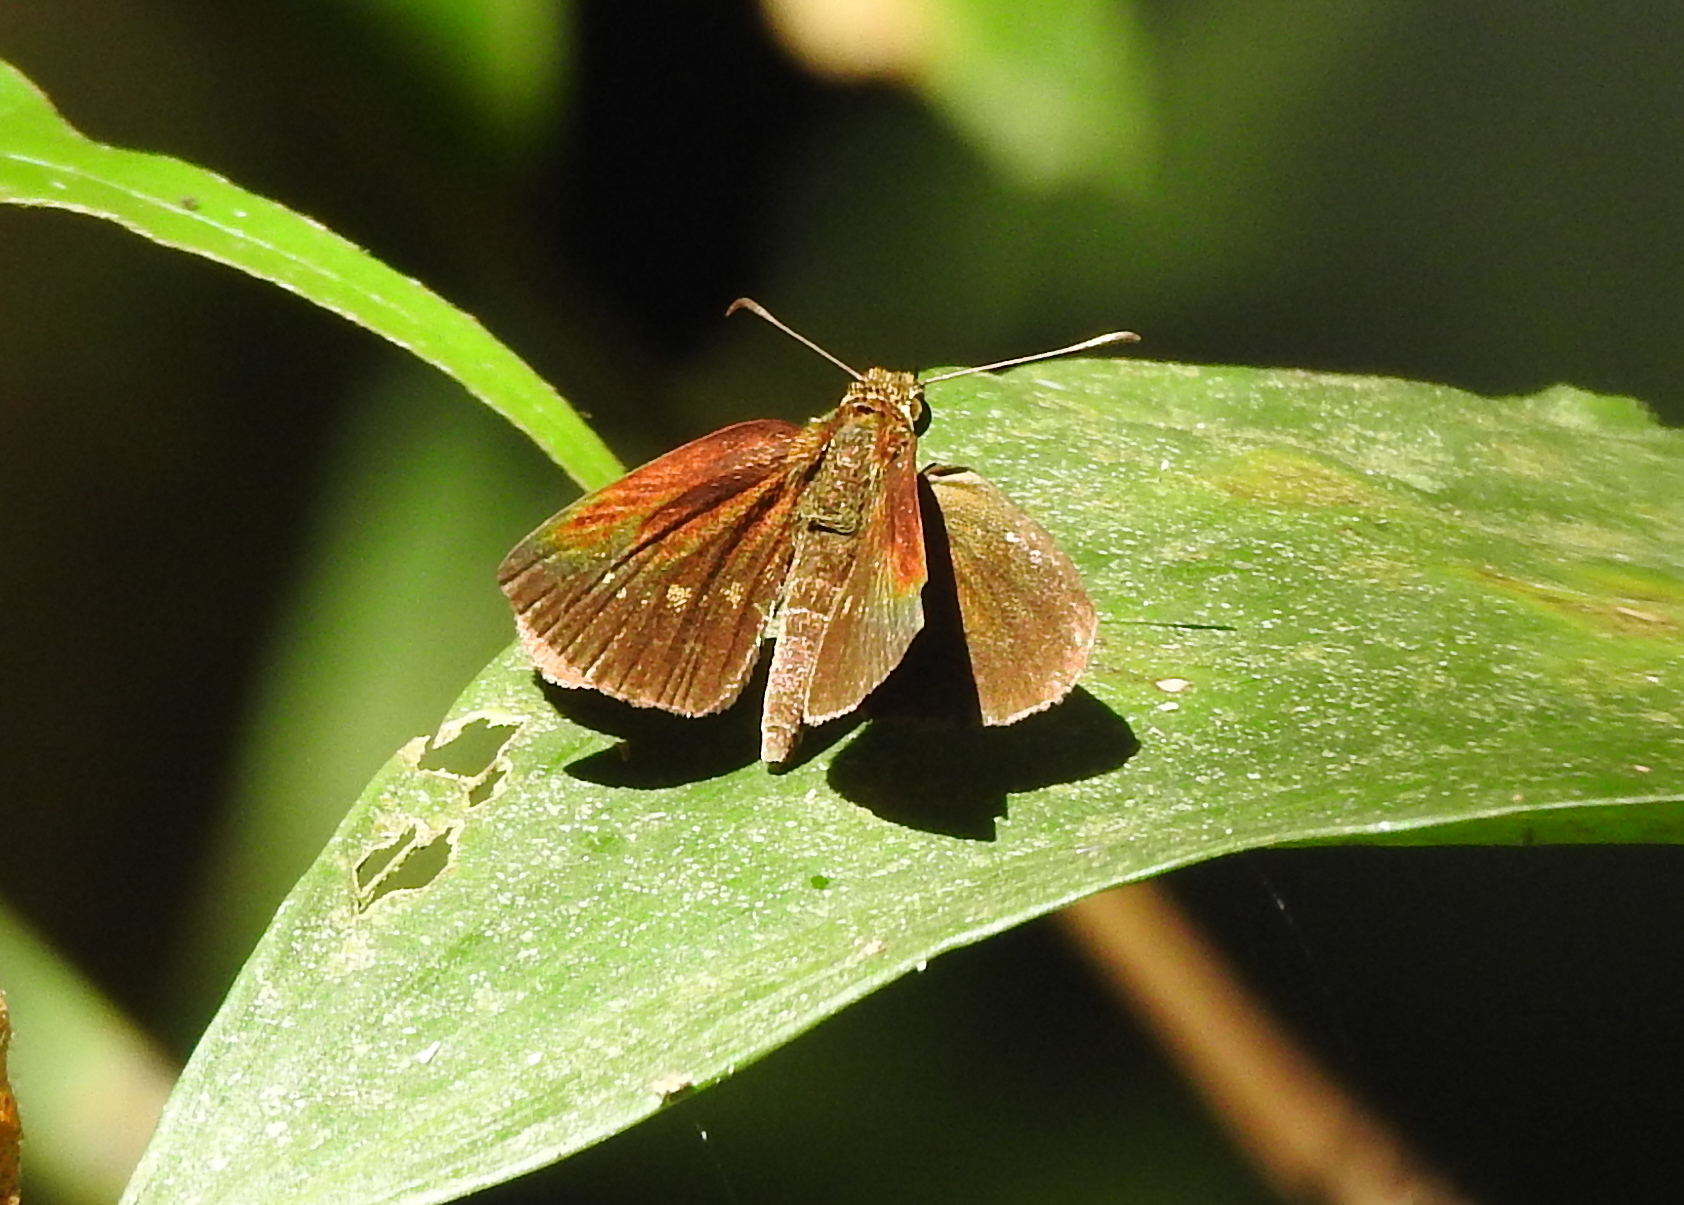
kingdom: Animalia
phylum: Arthropoda
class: Insecta
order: Lepidoptera
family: Hesperiidae
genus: Iambrix
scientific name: Iambrix salsala
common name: Chestnut bob
